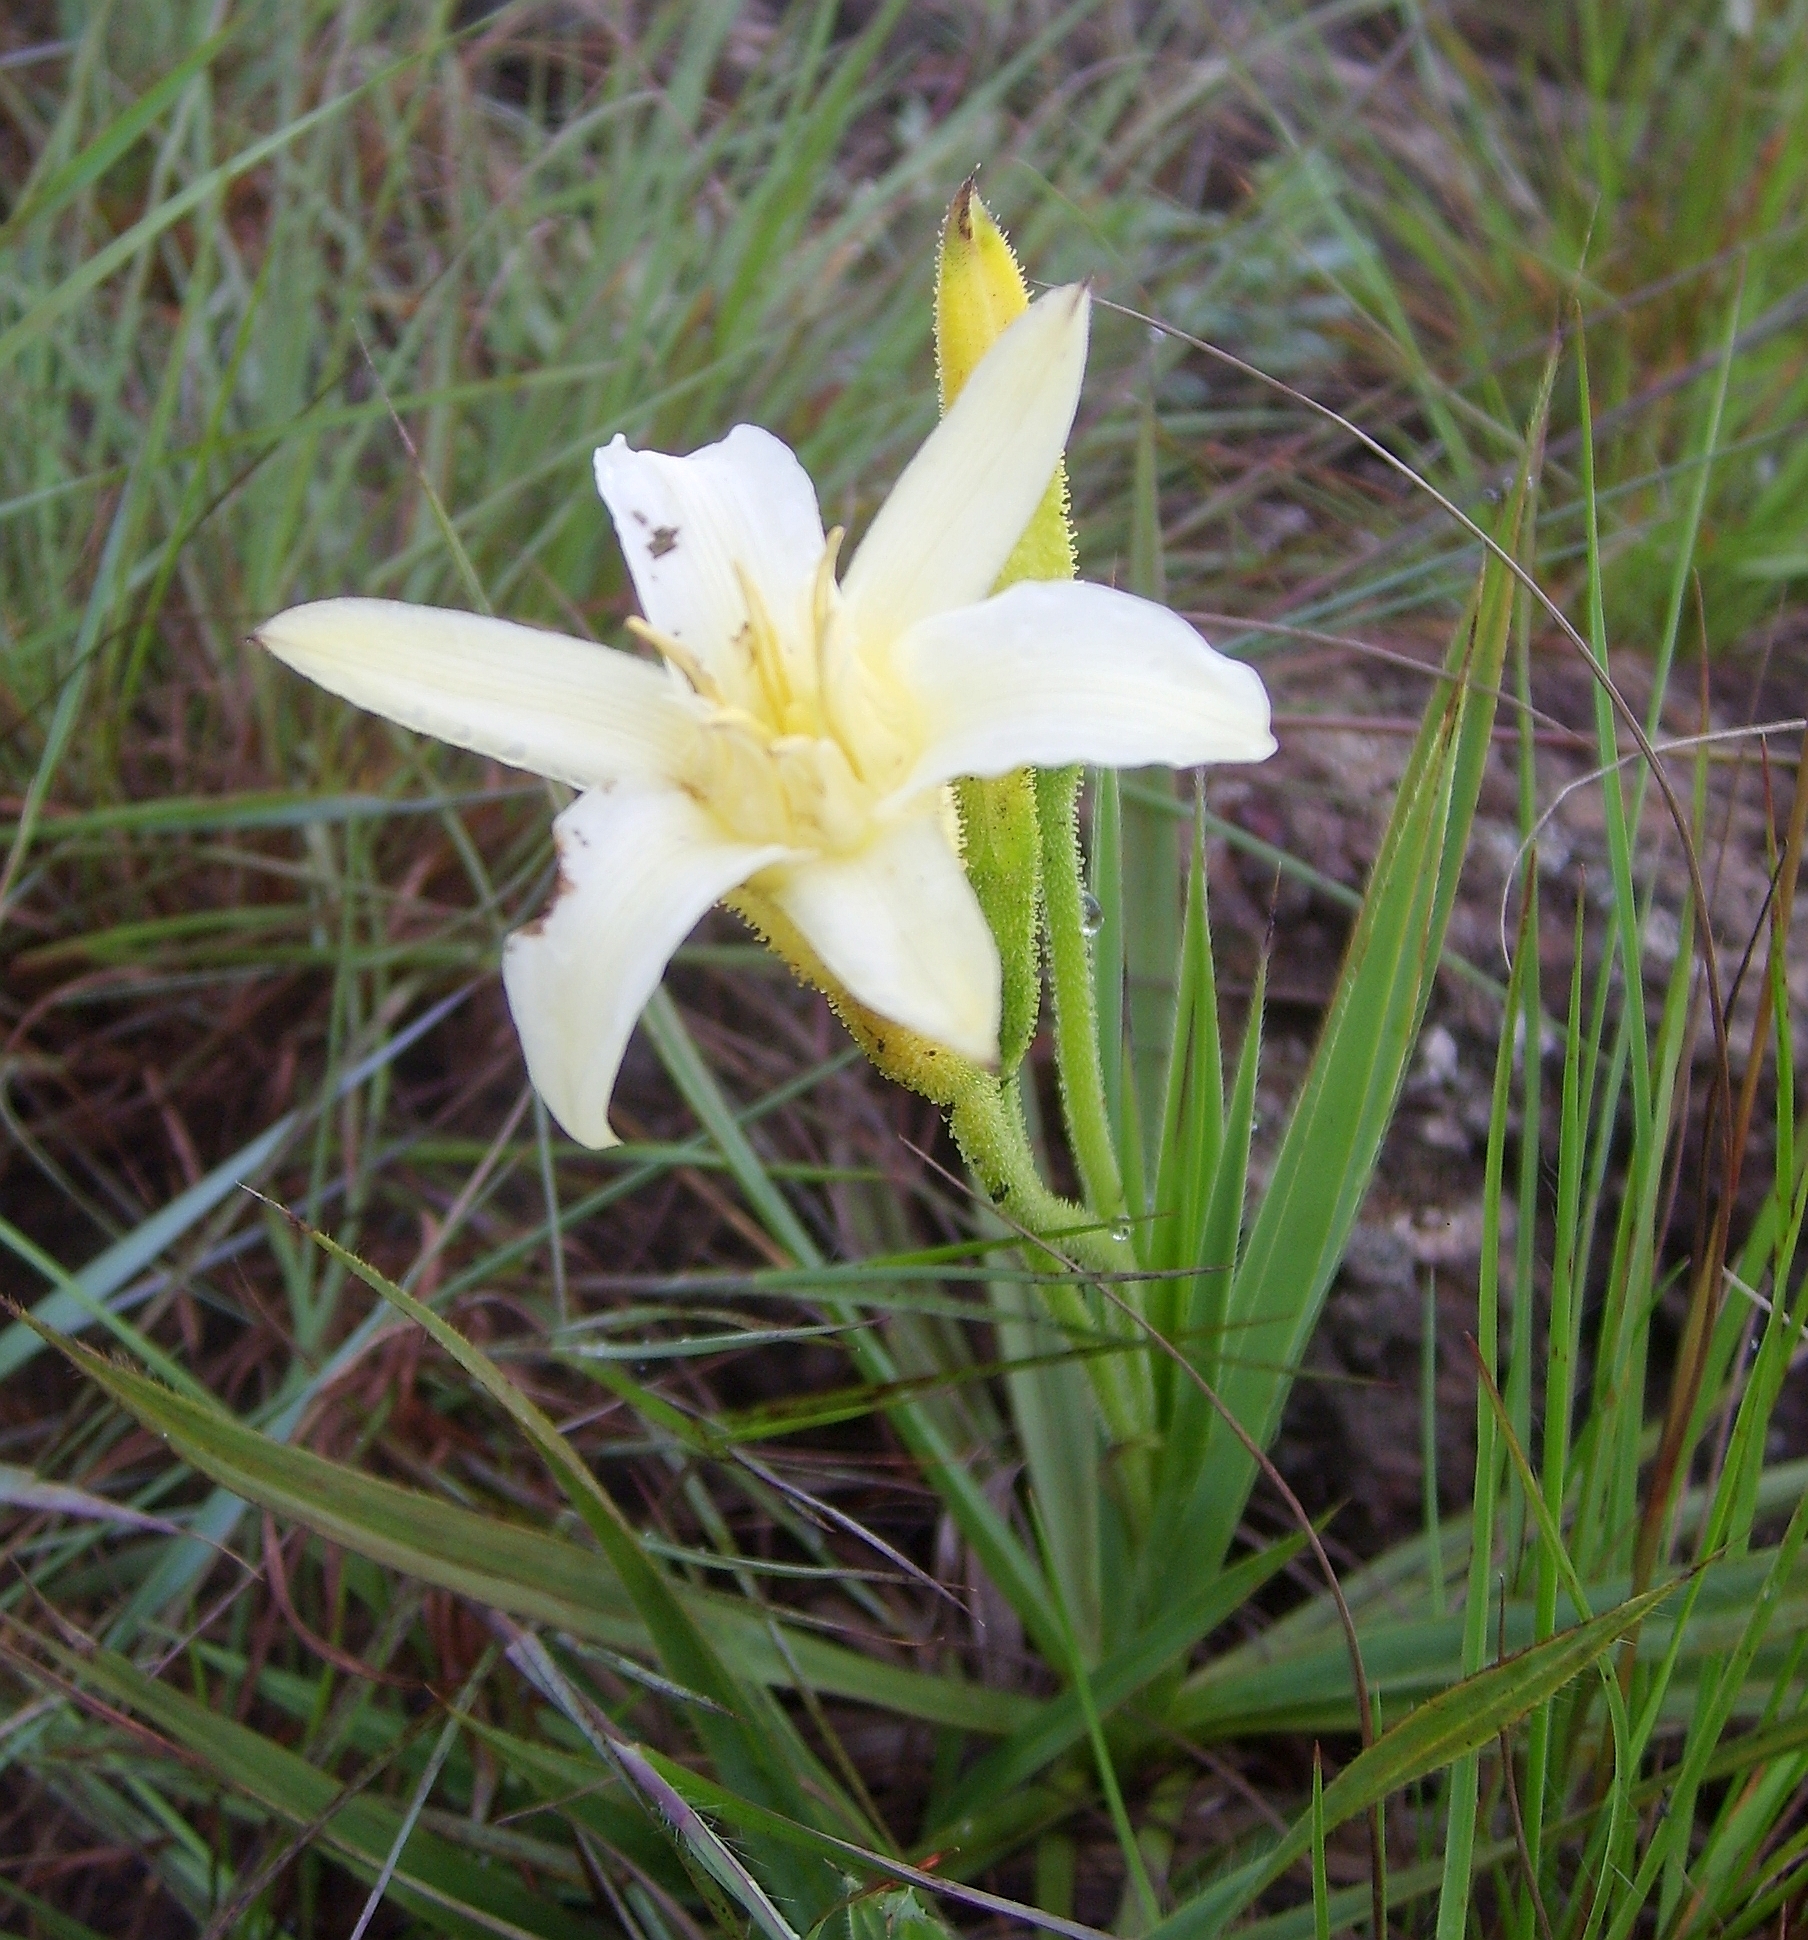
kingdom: Plantae
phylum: Tracheophyta
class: Liliopsida
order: Pandanales
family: Velloziaceae
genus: Barbacenia
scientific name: Barbacenia itabirensis
